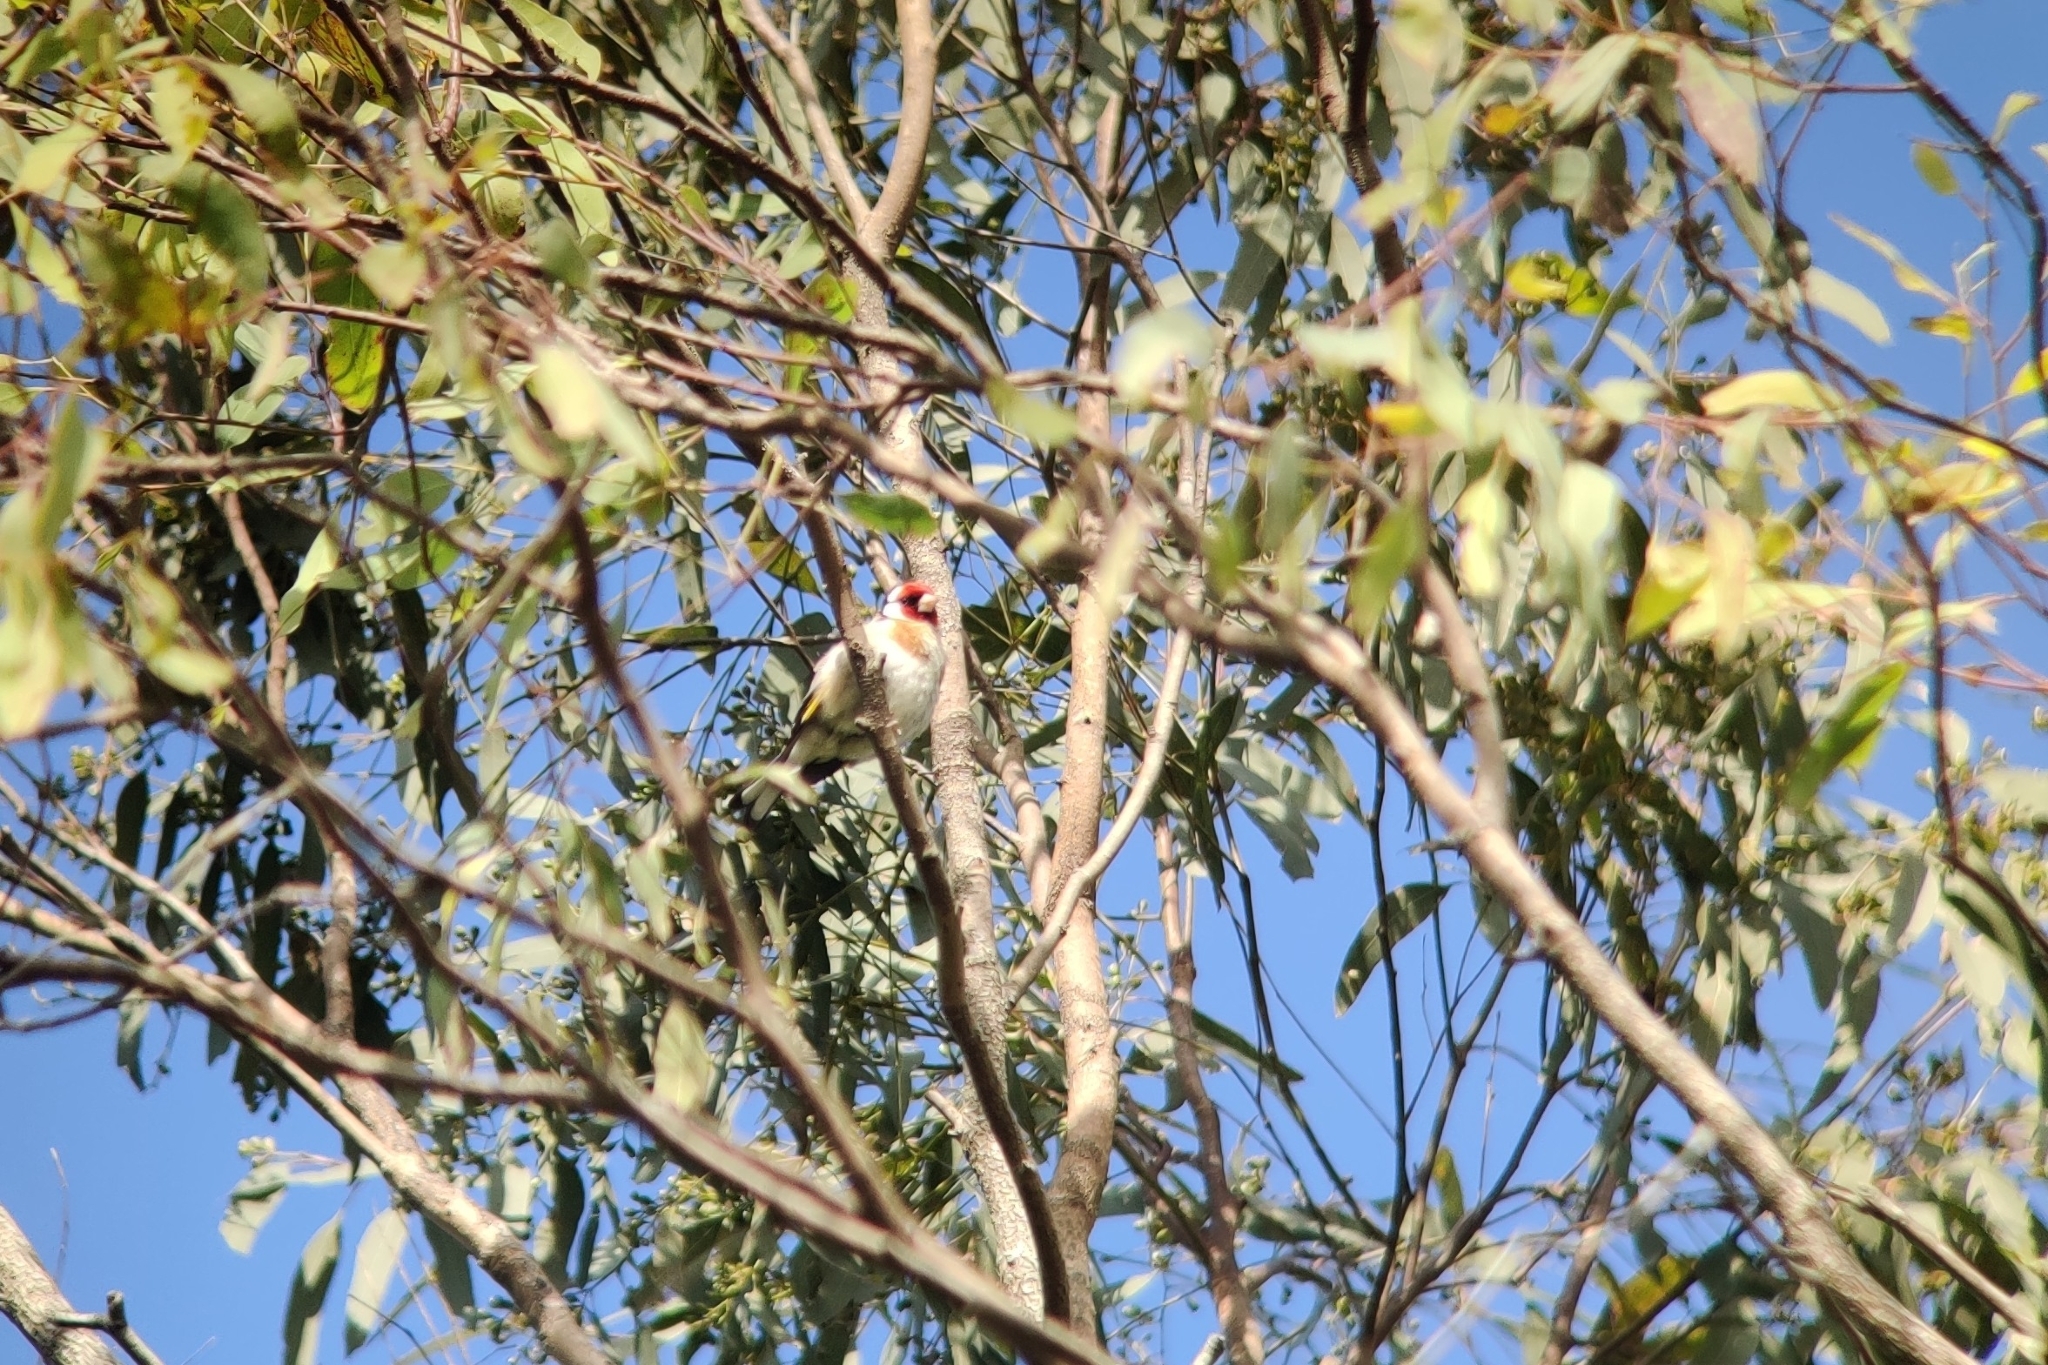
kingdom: Animalia
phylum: Chordata
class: Aves
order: Passeriformes
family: Fringillidae
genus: Carduelis
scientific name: Carduelis carduelis
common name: European goldfinch
